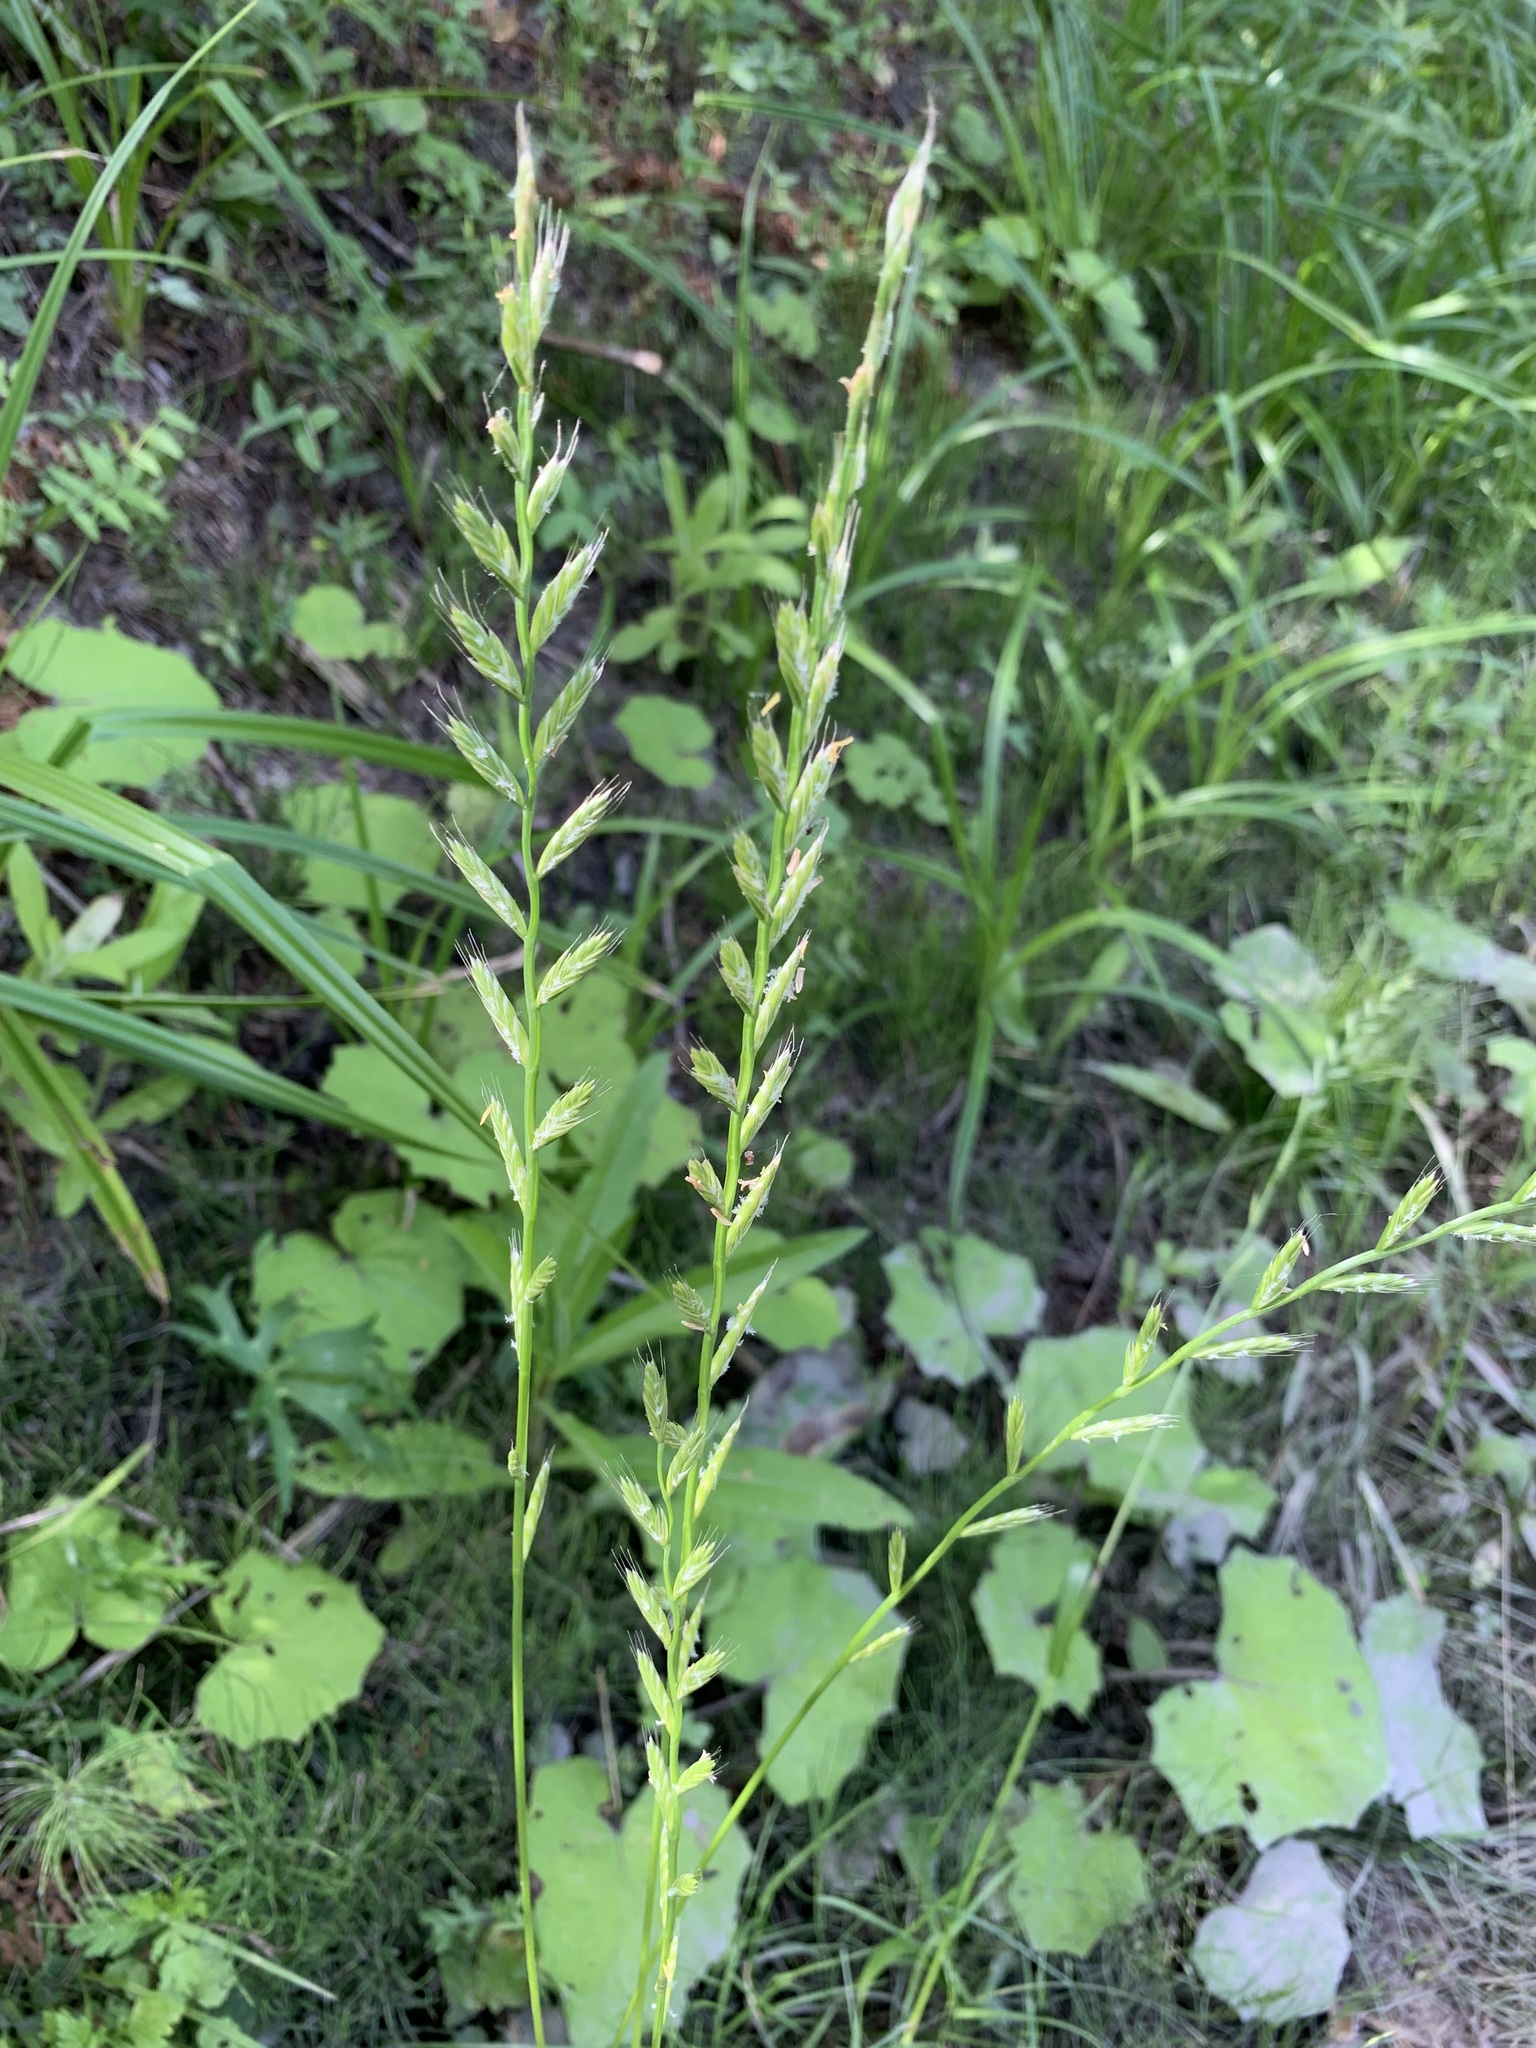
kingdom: Plantae
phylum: Tracheophyta
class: Liliopsida
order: Poales
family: Poaceae
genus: Lolium
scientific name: Lolium multiflorum
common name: Annual ryegrass
